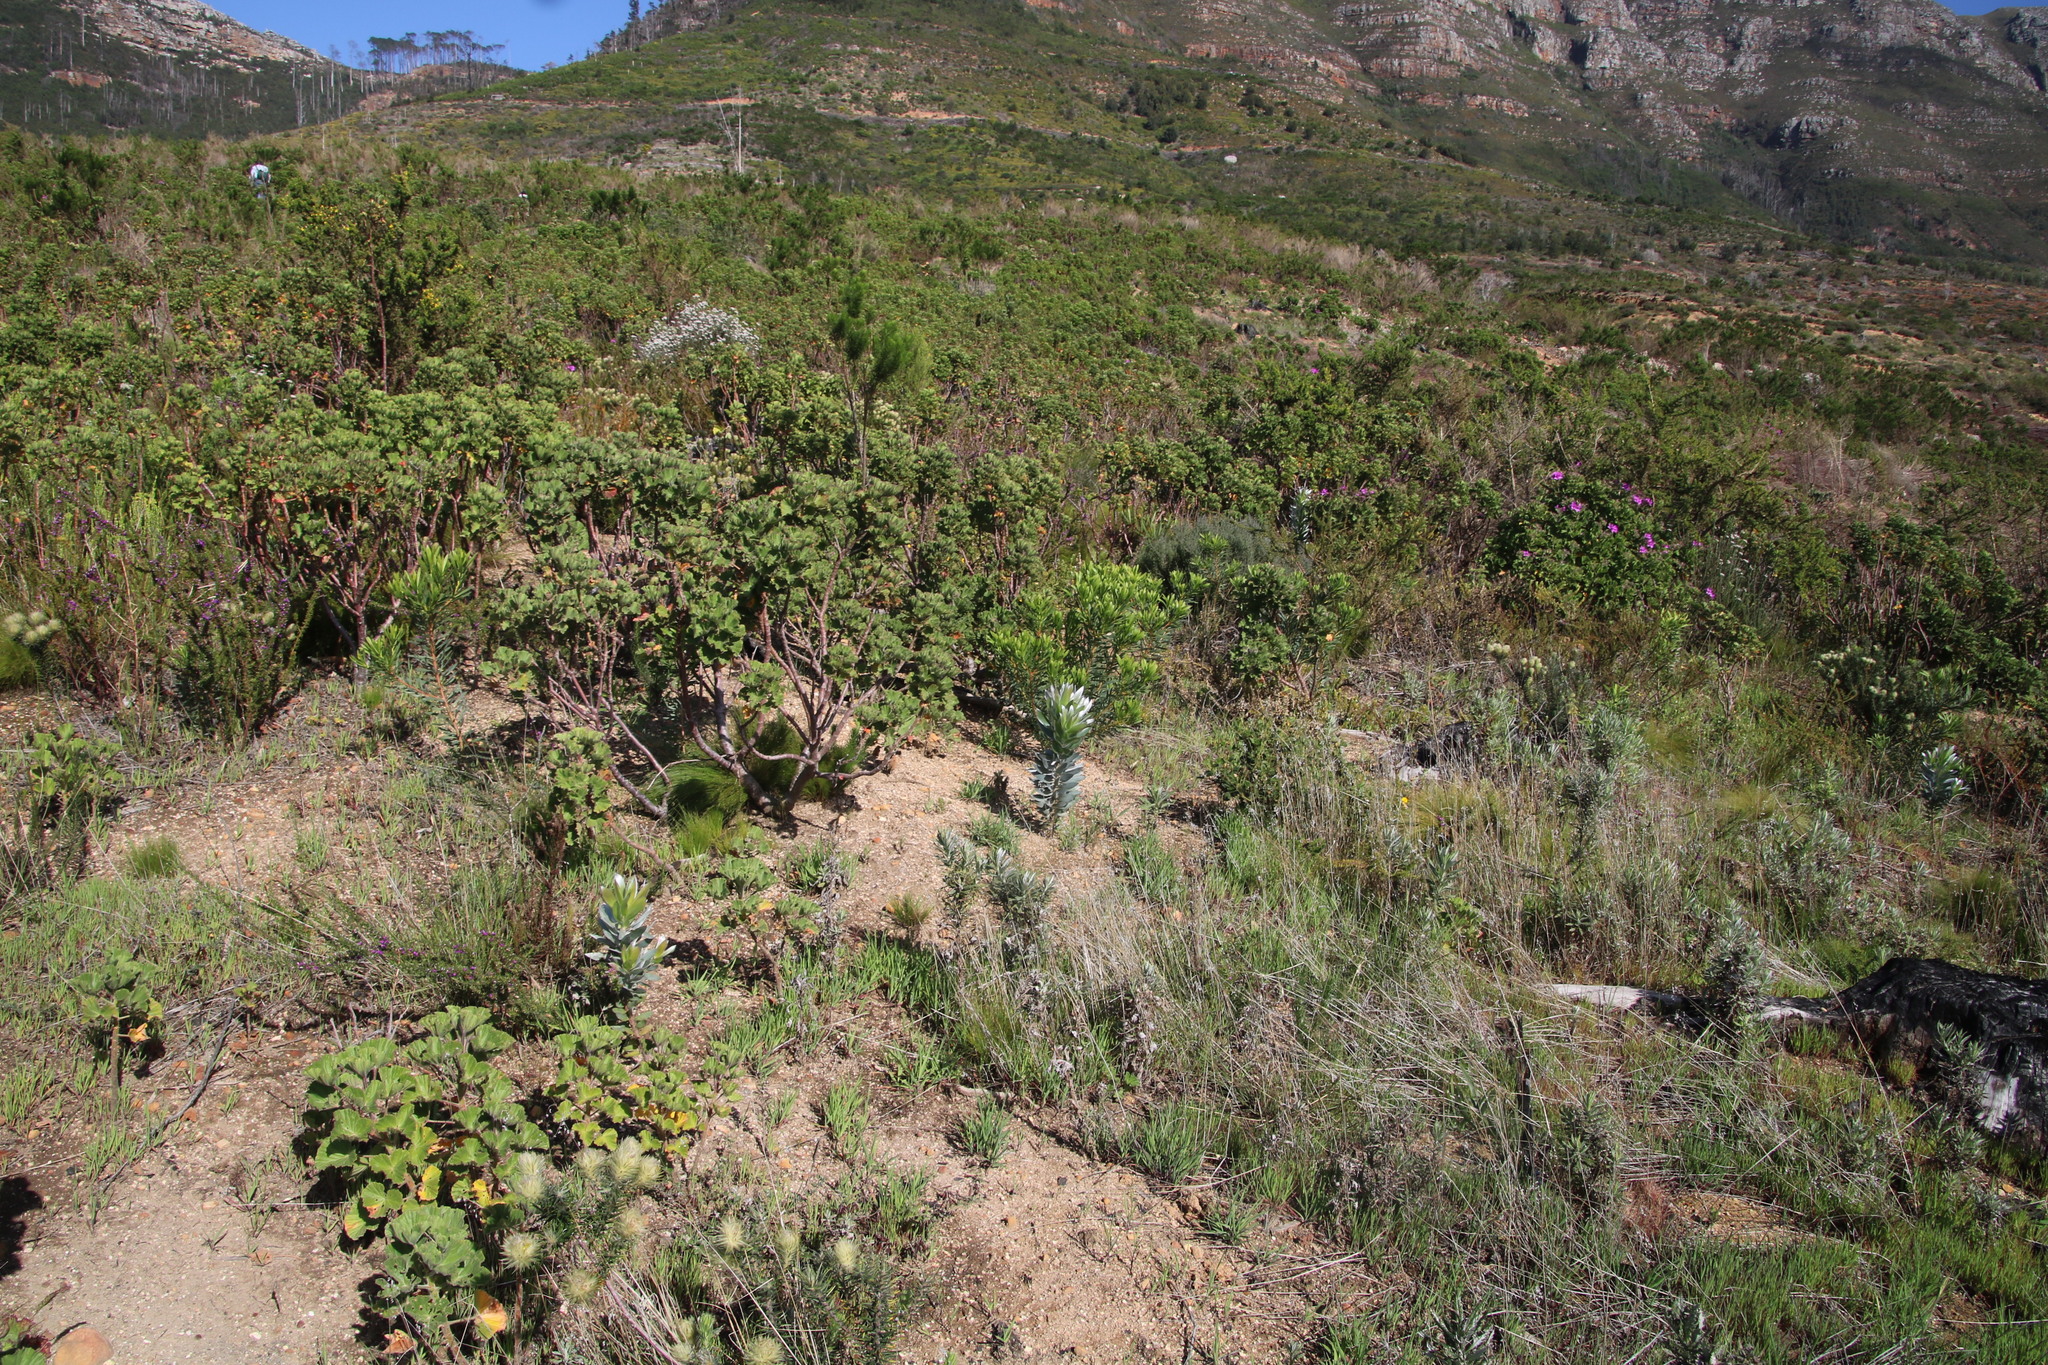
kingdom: Plantae
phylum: Tracheophyta
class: Magnoliopsida
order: Proteales
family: Proteaceae
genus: Leucadendron
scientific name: Leucadendron argenteum
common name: Cape silver tree
